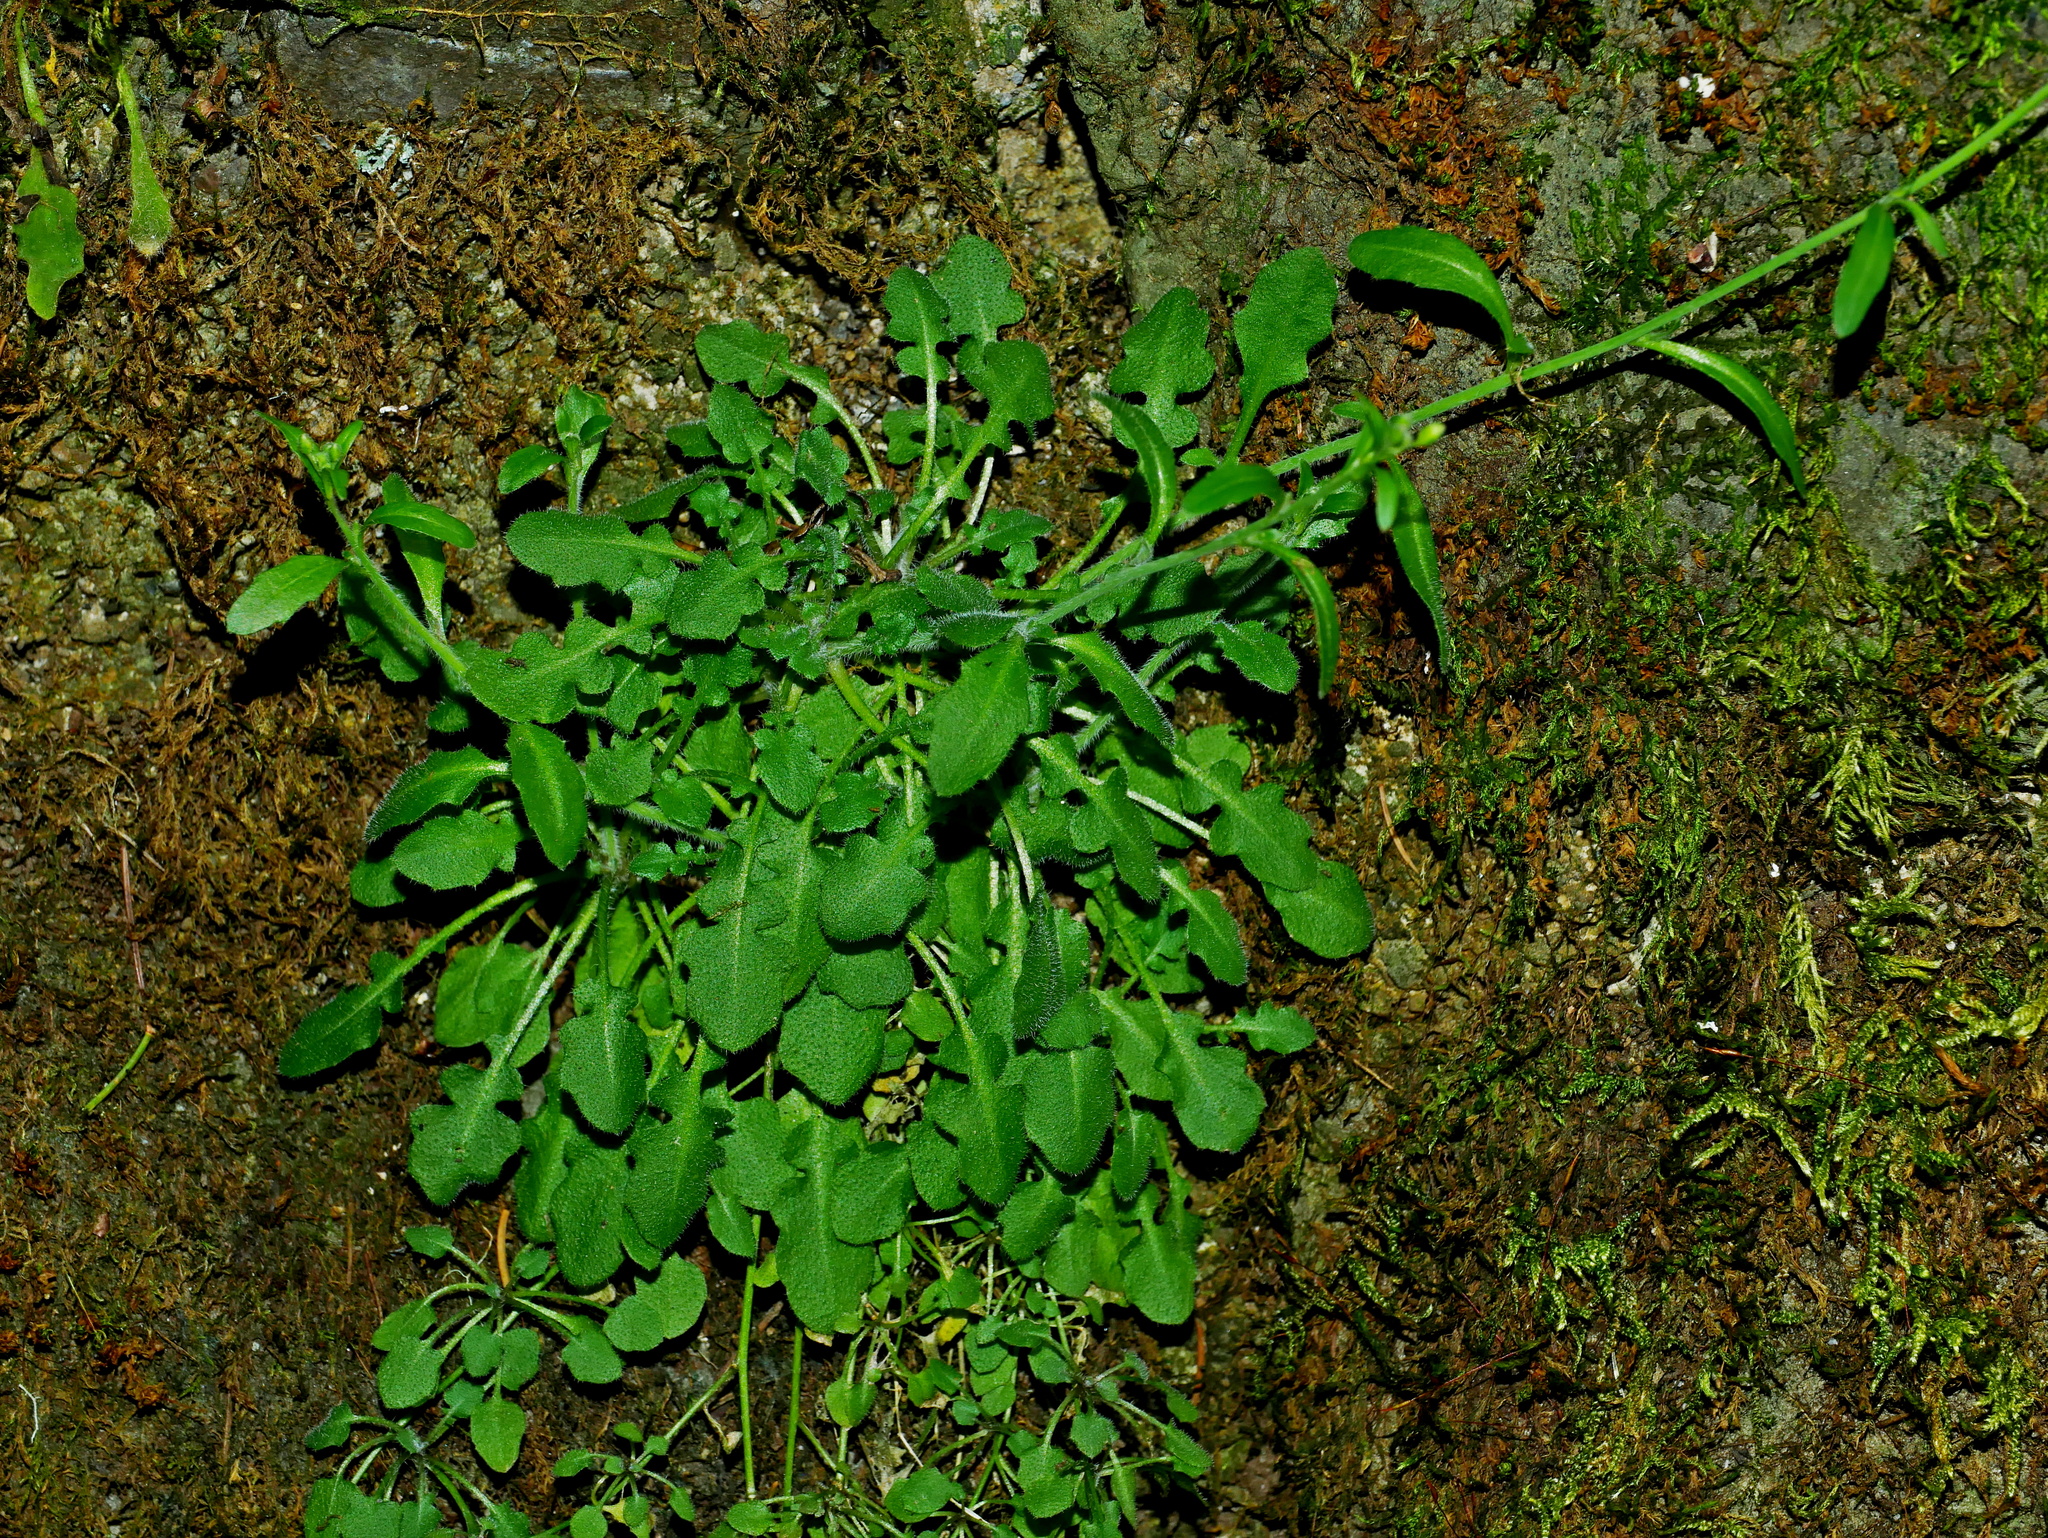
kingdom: Plantae
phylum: Tracheophyta
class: Magnoliopsida
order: Brassicales
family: Brassicaceae
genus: Arabidopsis
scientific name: Arabidopsis lyrata
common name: Lyrate rockcress
